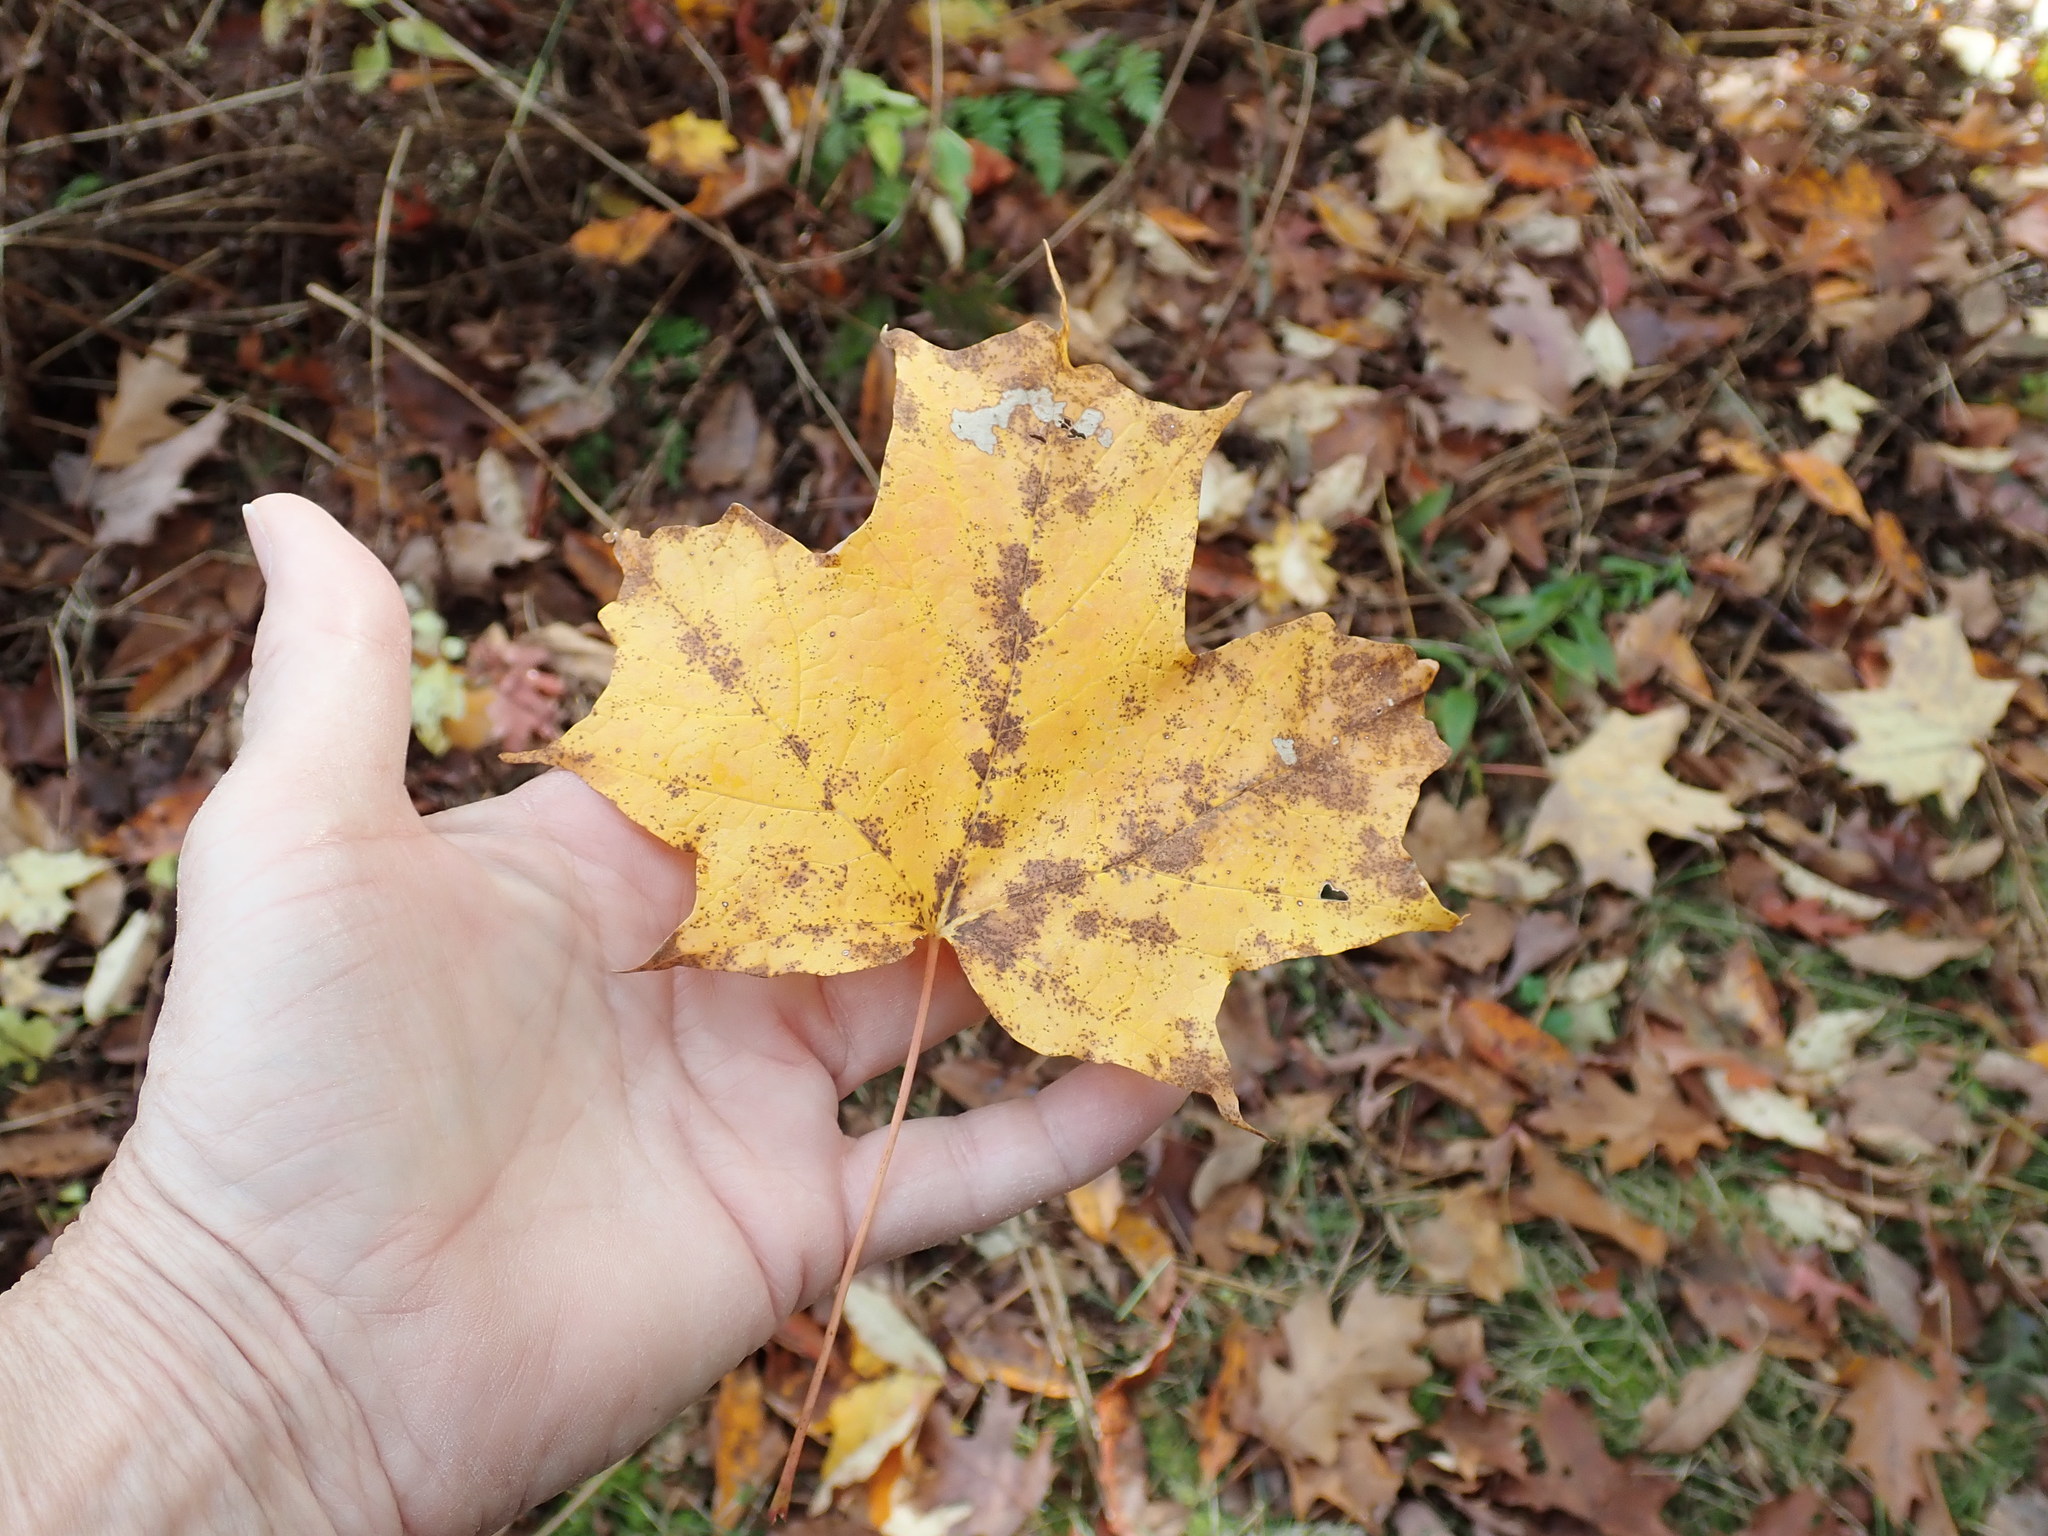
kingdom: Plantae
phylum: Tracheophyta
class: Magnoliopsida
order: Sapindales
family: Sapindaceae
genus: Acer
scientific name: Acer saccharum
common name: Sugar maple
